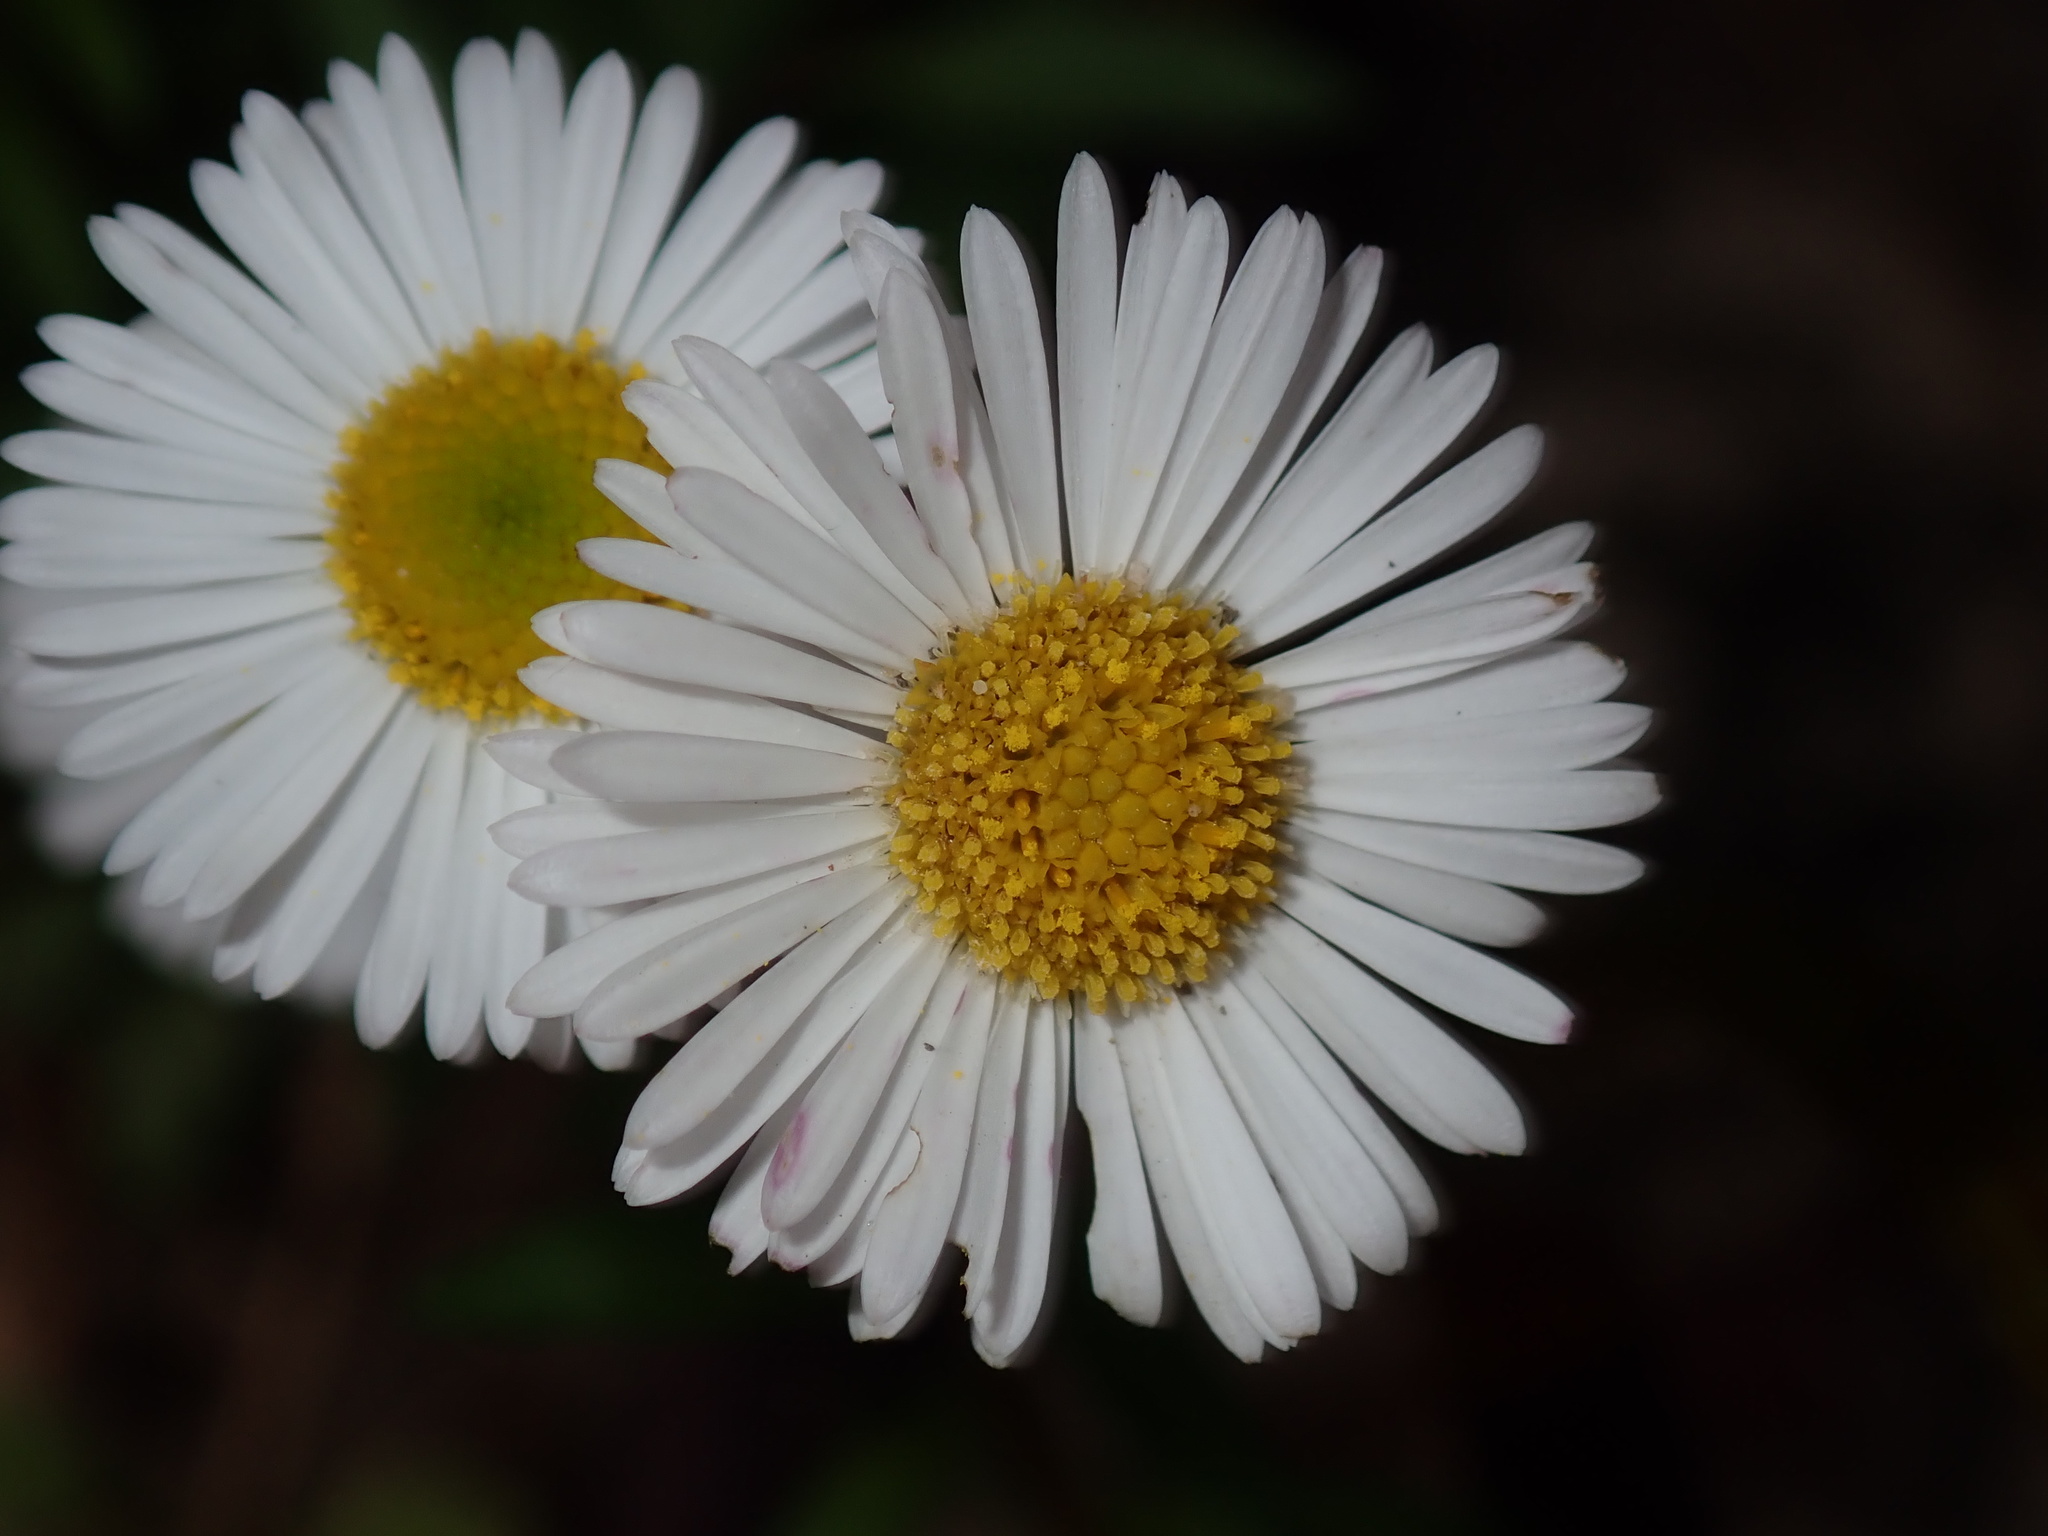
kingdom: Plantae
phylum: Tracheophyta
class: Magnoliopsida
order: Asterales
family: Asteraceae
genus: Erigeron
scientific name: Erigeron karvinskianus
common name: Mexican fleabane
